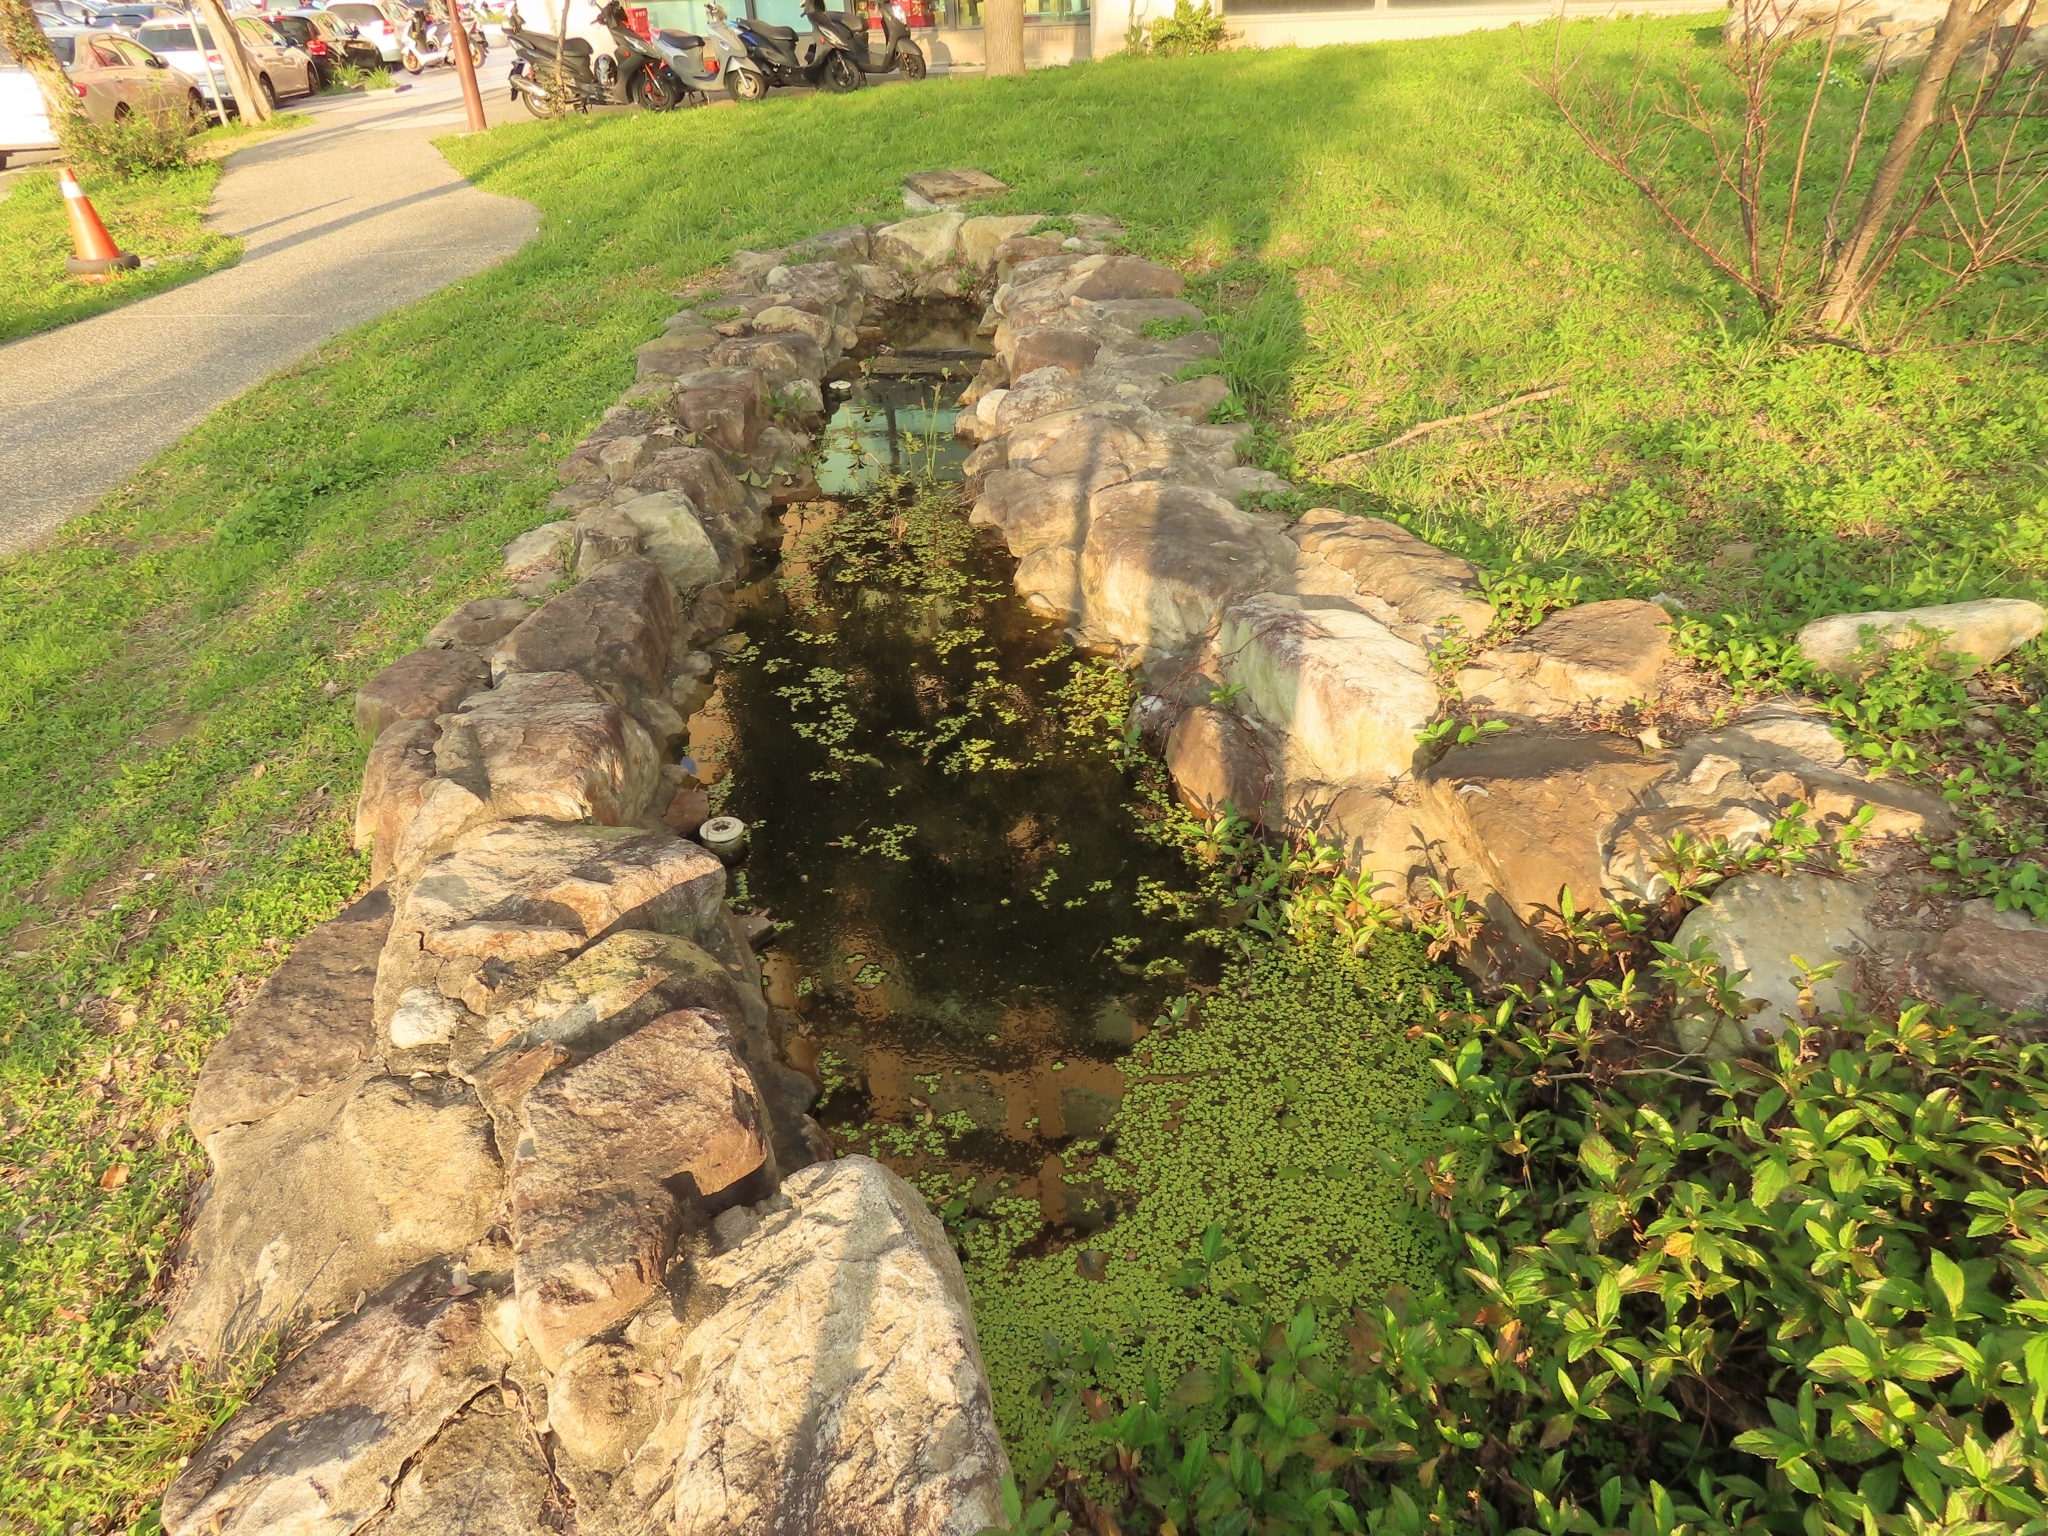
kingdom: Plantae
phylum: Tracheophyta
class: Liliopsida
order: Alismatales
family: Araceae
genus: Spirodela
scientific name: Spirodela polyrhiza
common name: Great duckweed
